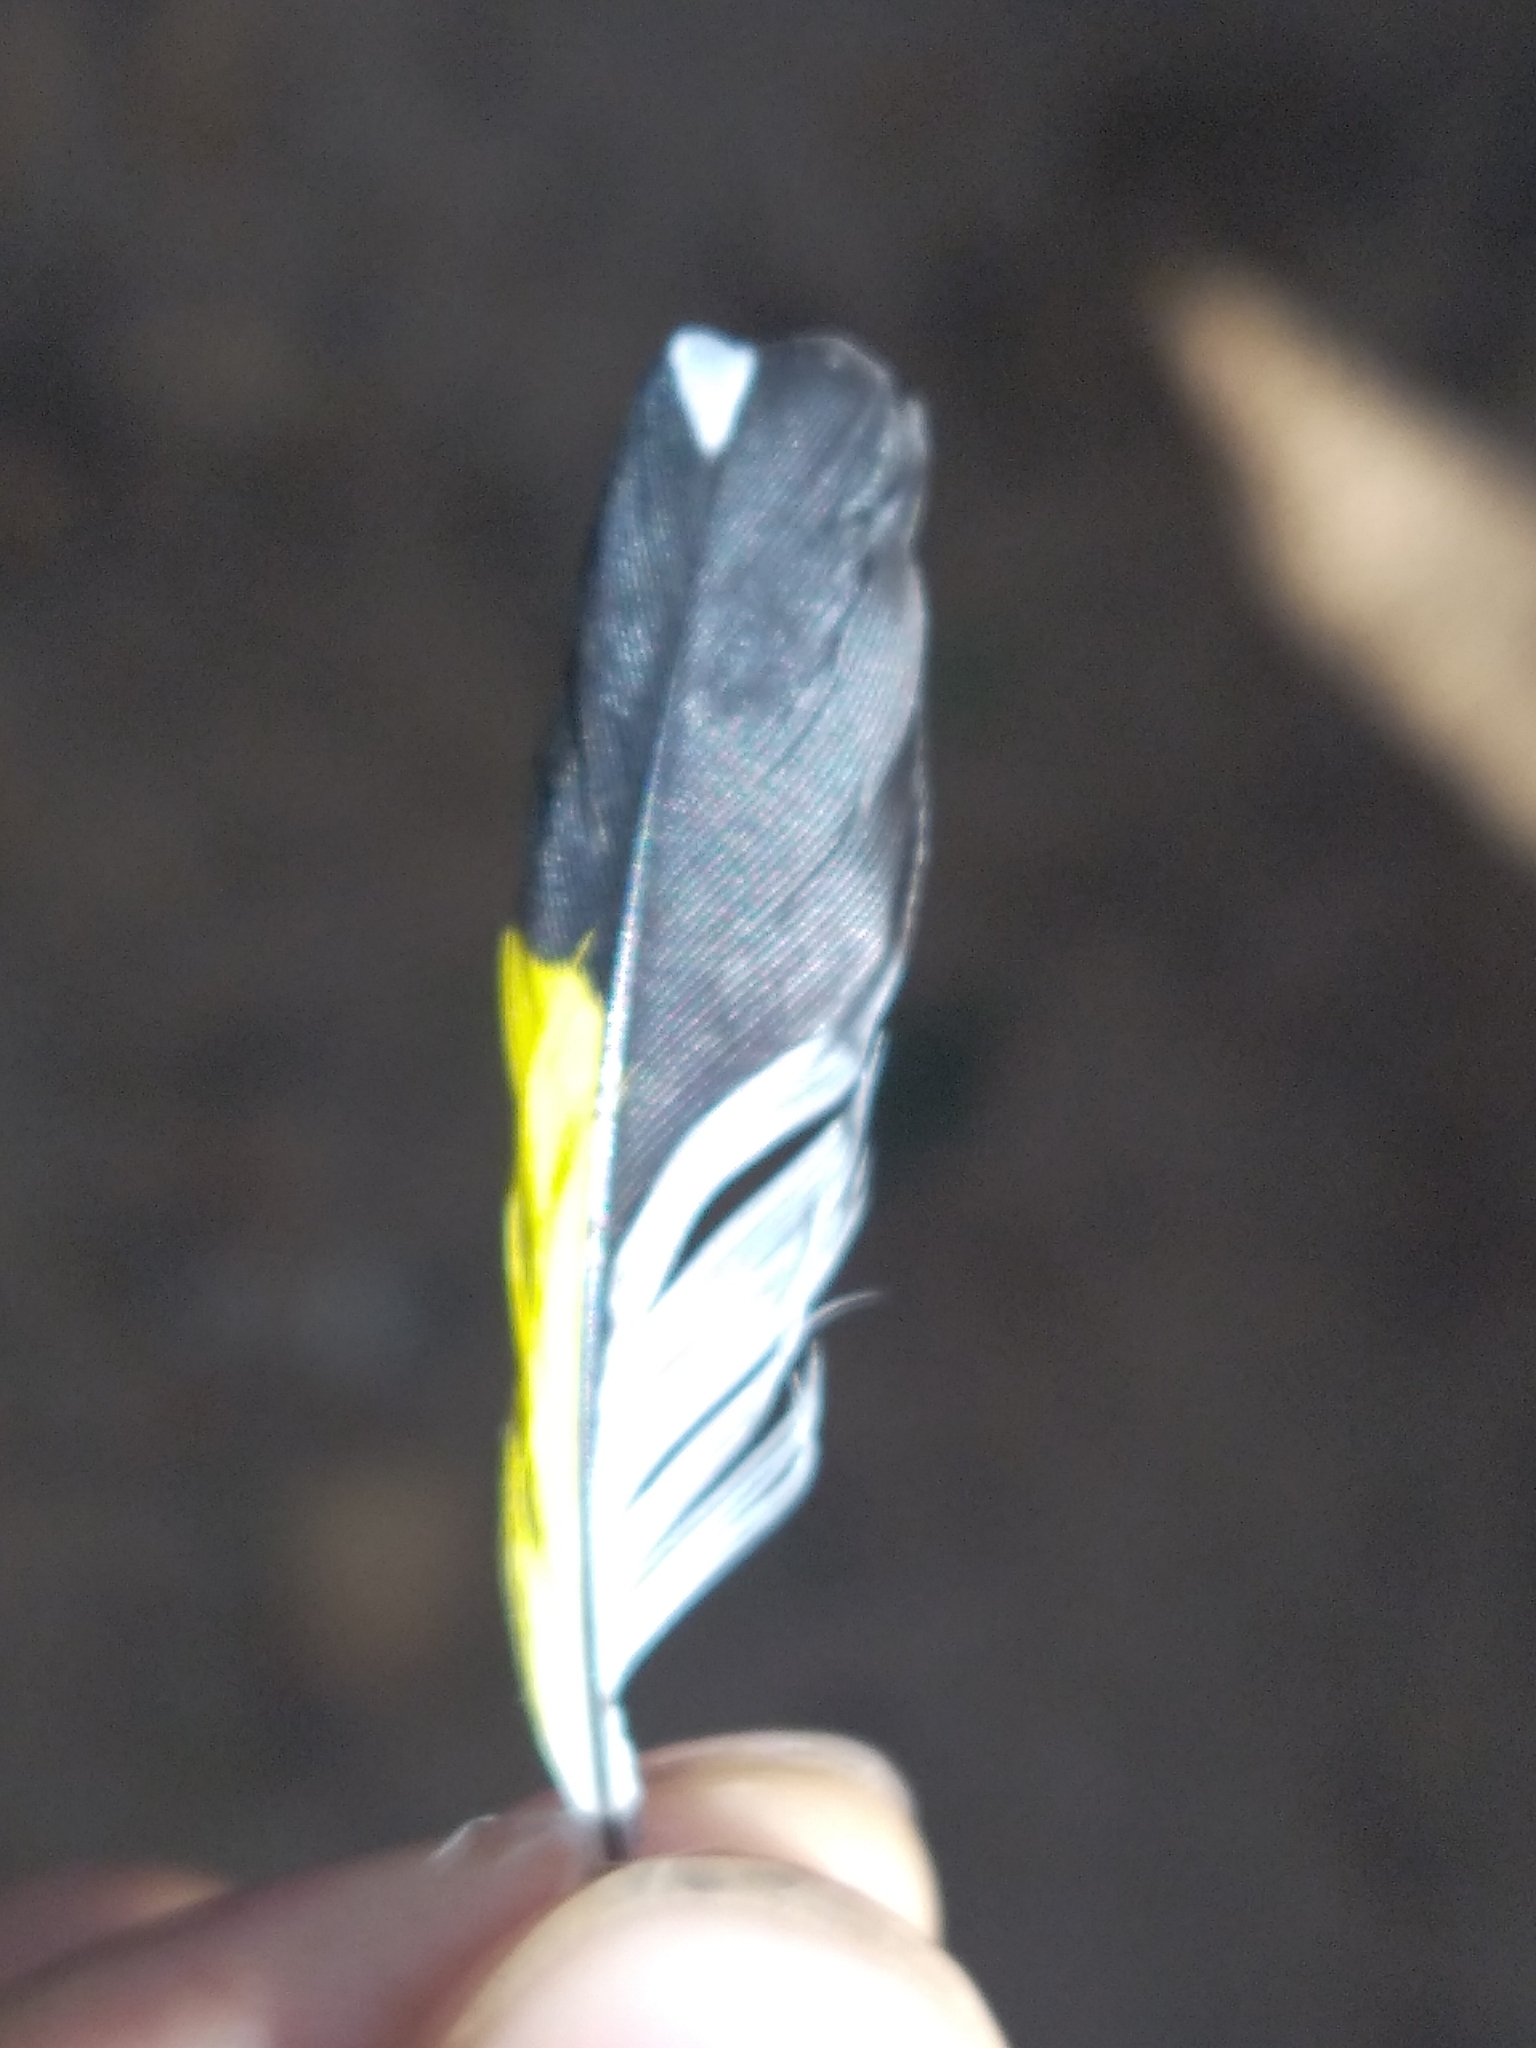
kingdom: Animalia
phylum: Chordata
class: Aves
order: Passeriformes
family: Fringillidae
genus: Carduelis
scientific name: Carduelis carduelis
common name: European goldfinch
